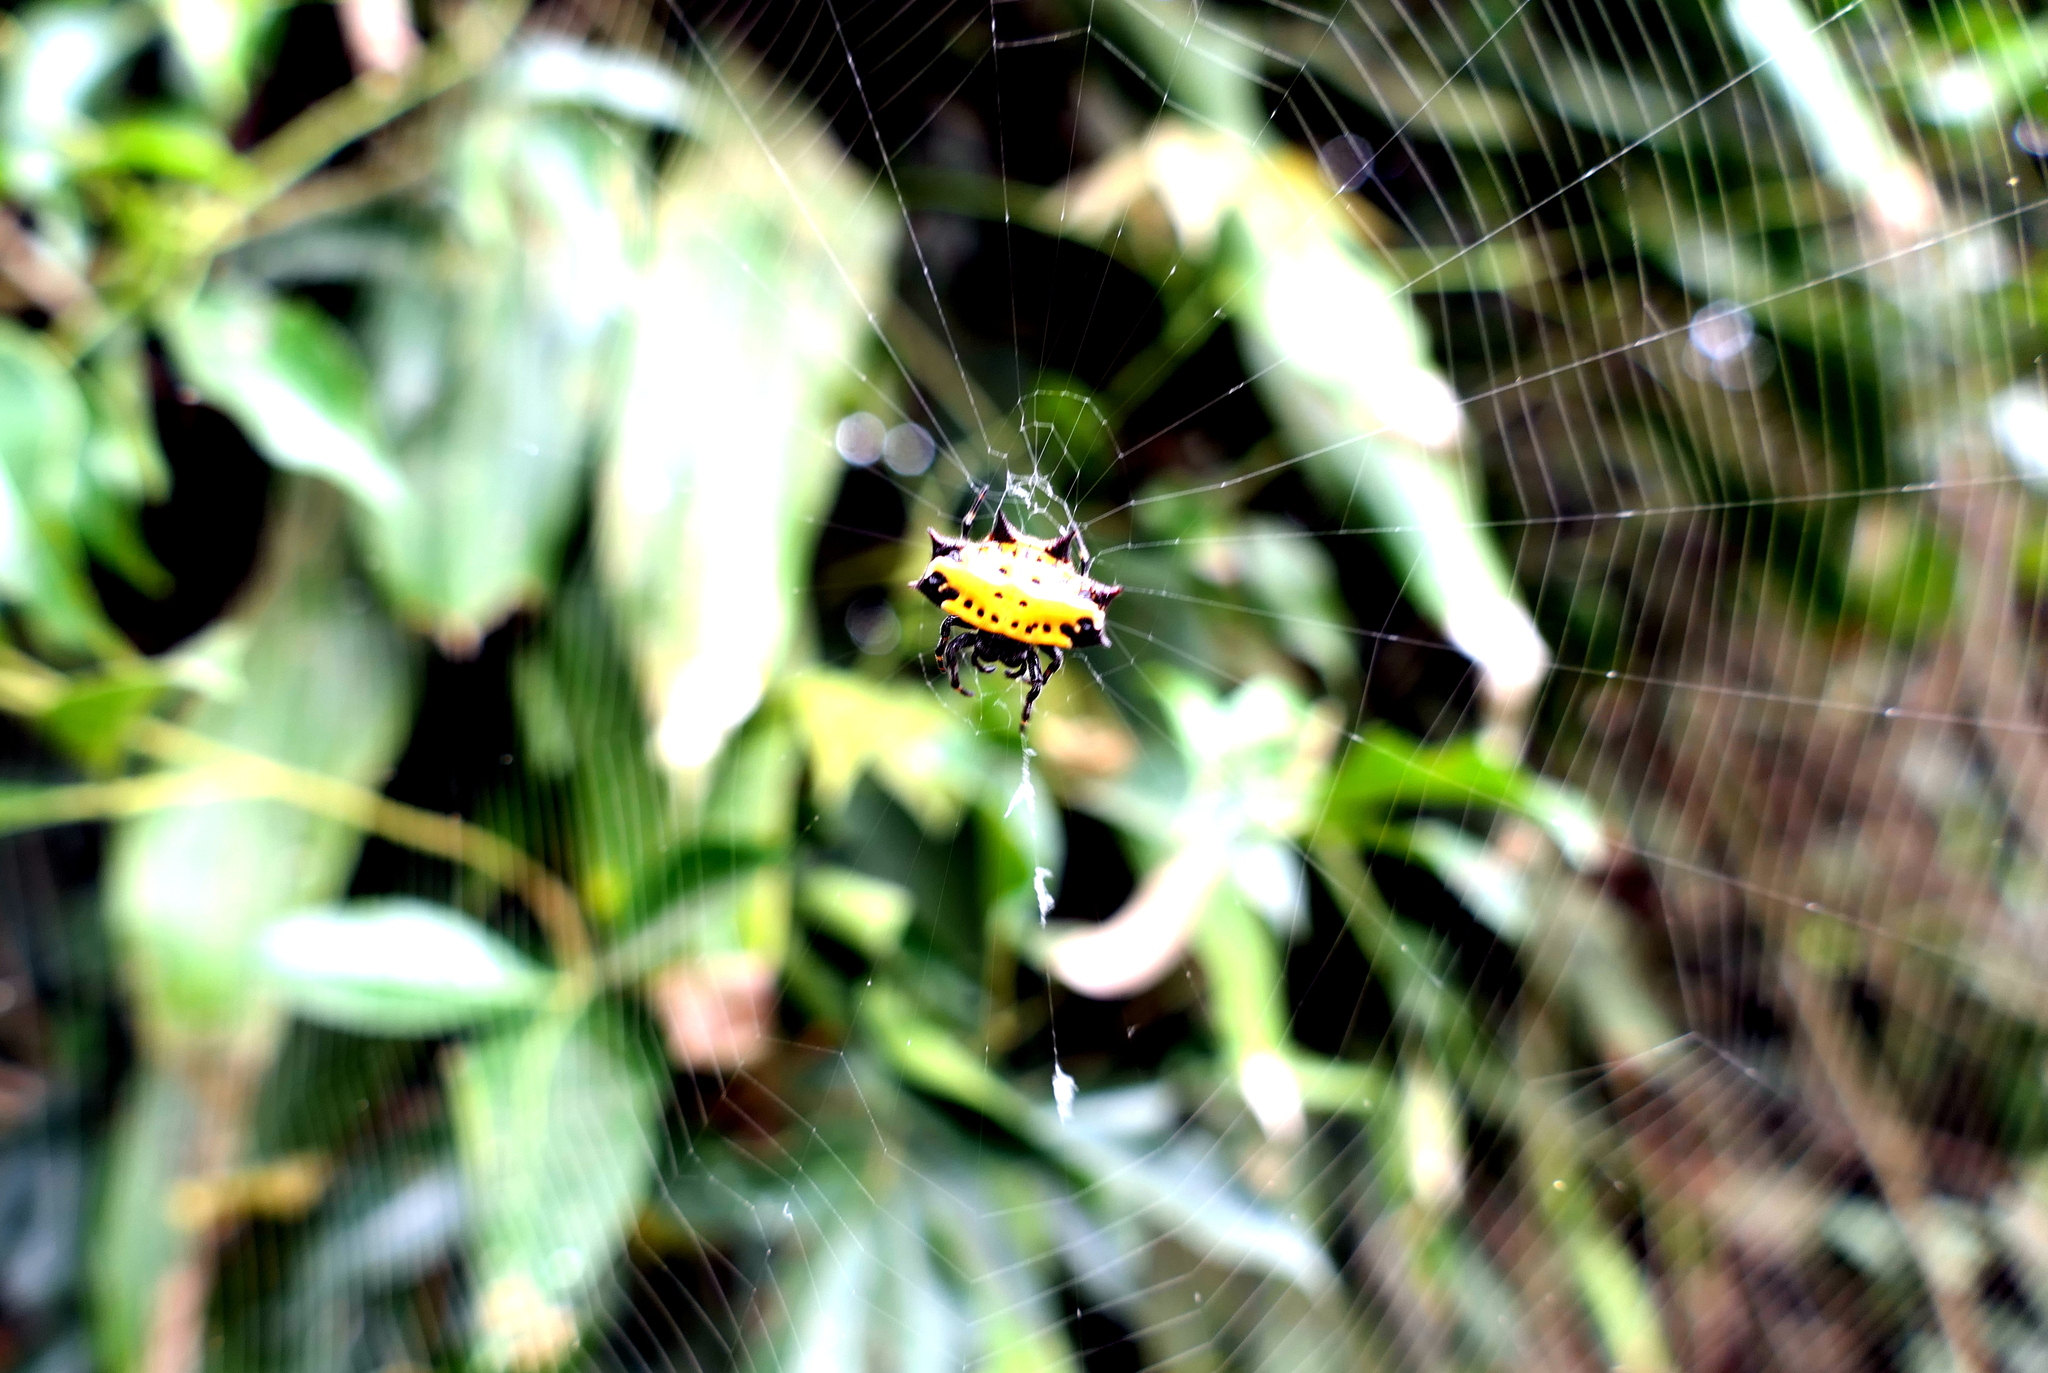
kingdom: Animalia
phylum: Arthropoda
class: Arachnida
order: Araneae
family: Araneidae
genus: Gasteracantha
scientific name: Gasteracantha cancriformis
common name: Orb weavers
